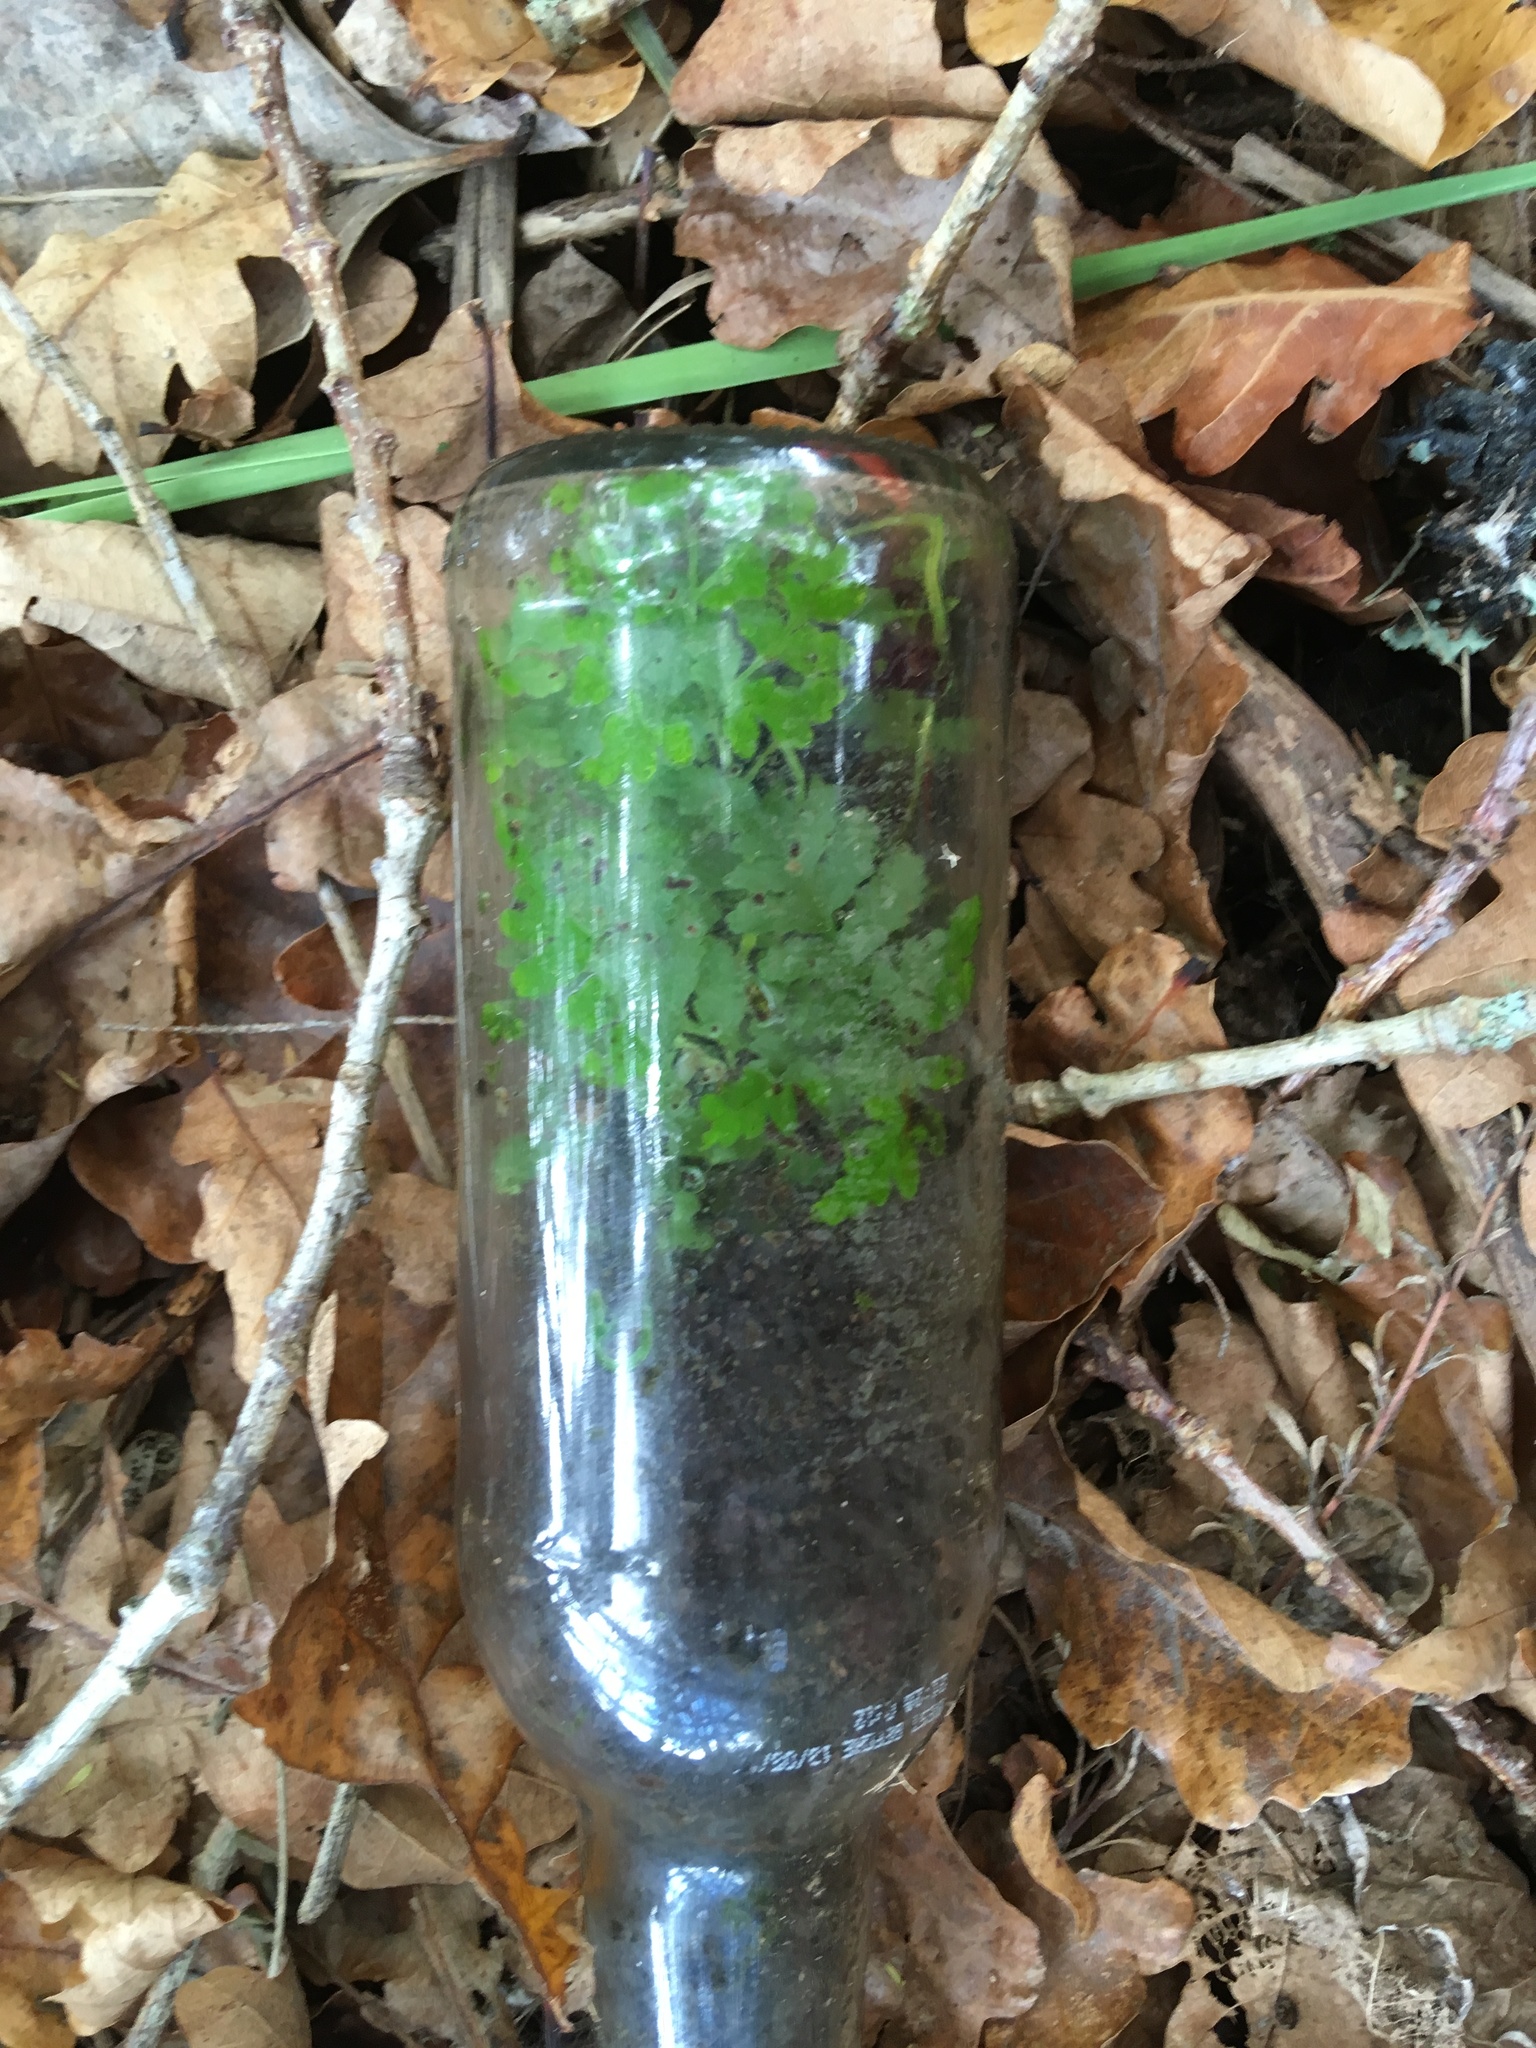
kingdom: Plantae
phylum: Tracheophyta
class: Polypodiopsida
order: Polypodiales
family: Pteridaceae
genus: Pteris
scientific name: Pteris tremula
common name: Australian brake
